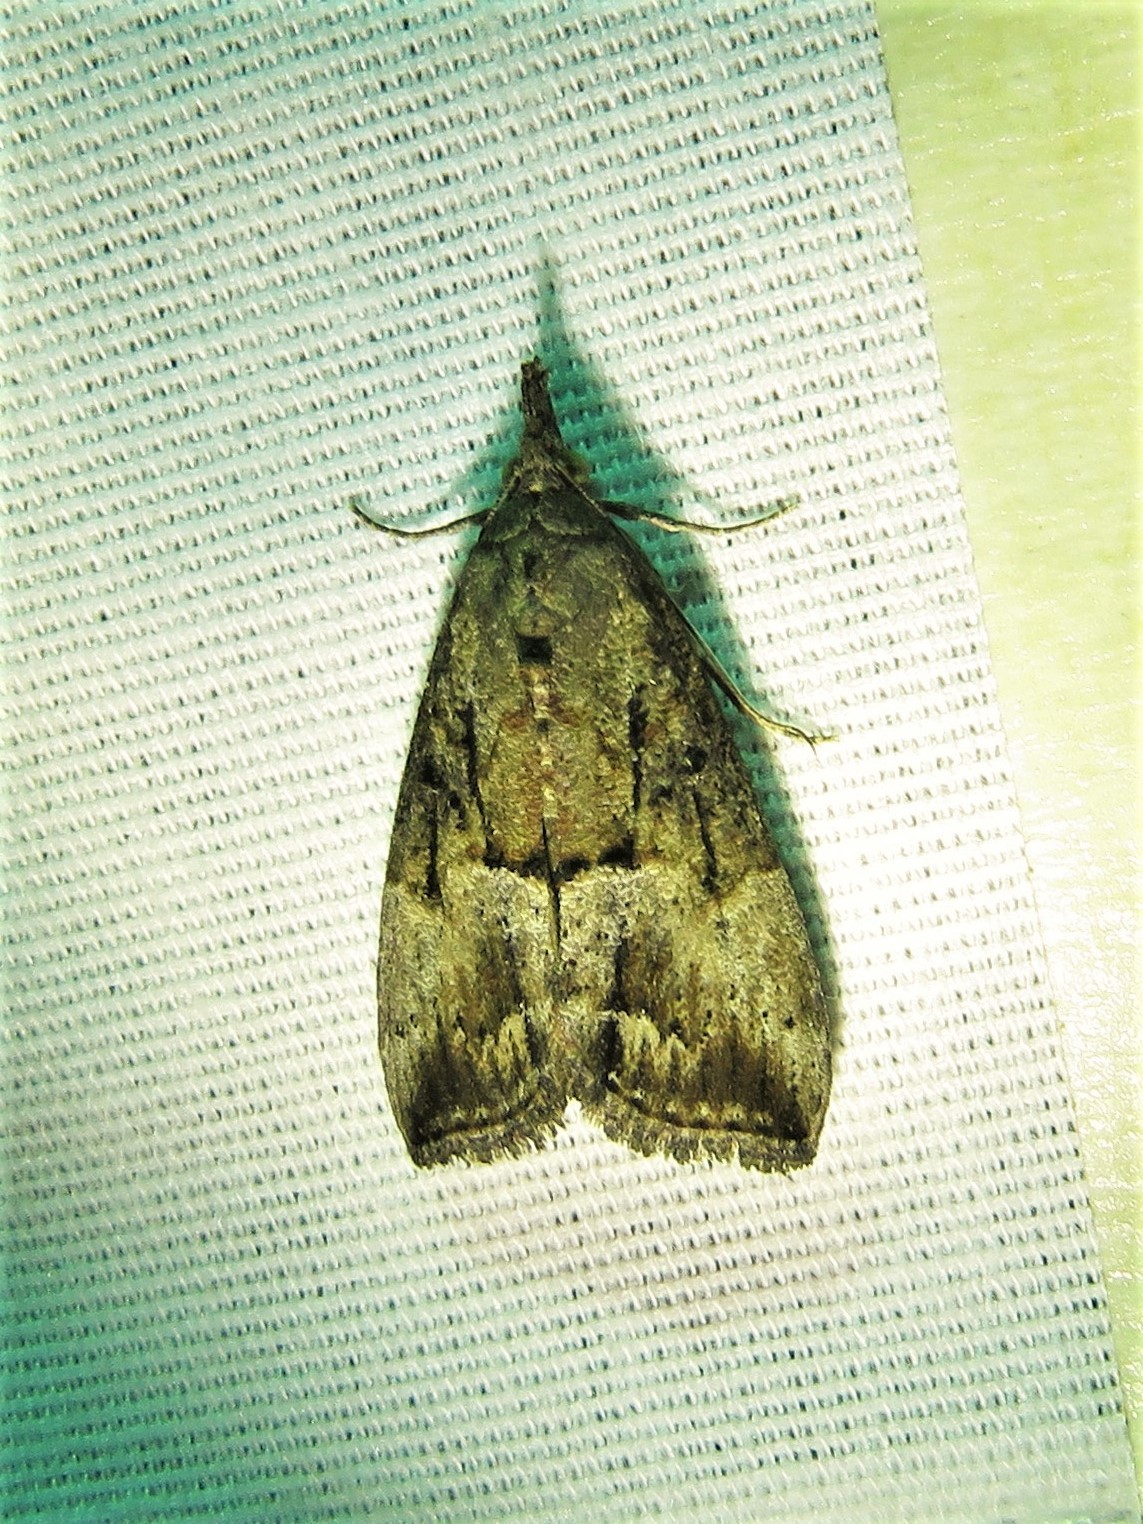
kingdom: Animalia
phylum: Arthropoda
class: Insecta
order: Lepidoptera
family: Erebidae
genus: Hypena
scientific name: Hypena scabra
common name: Green cloverworm
